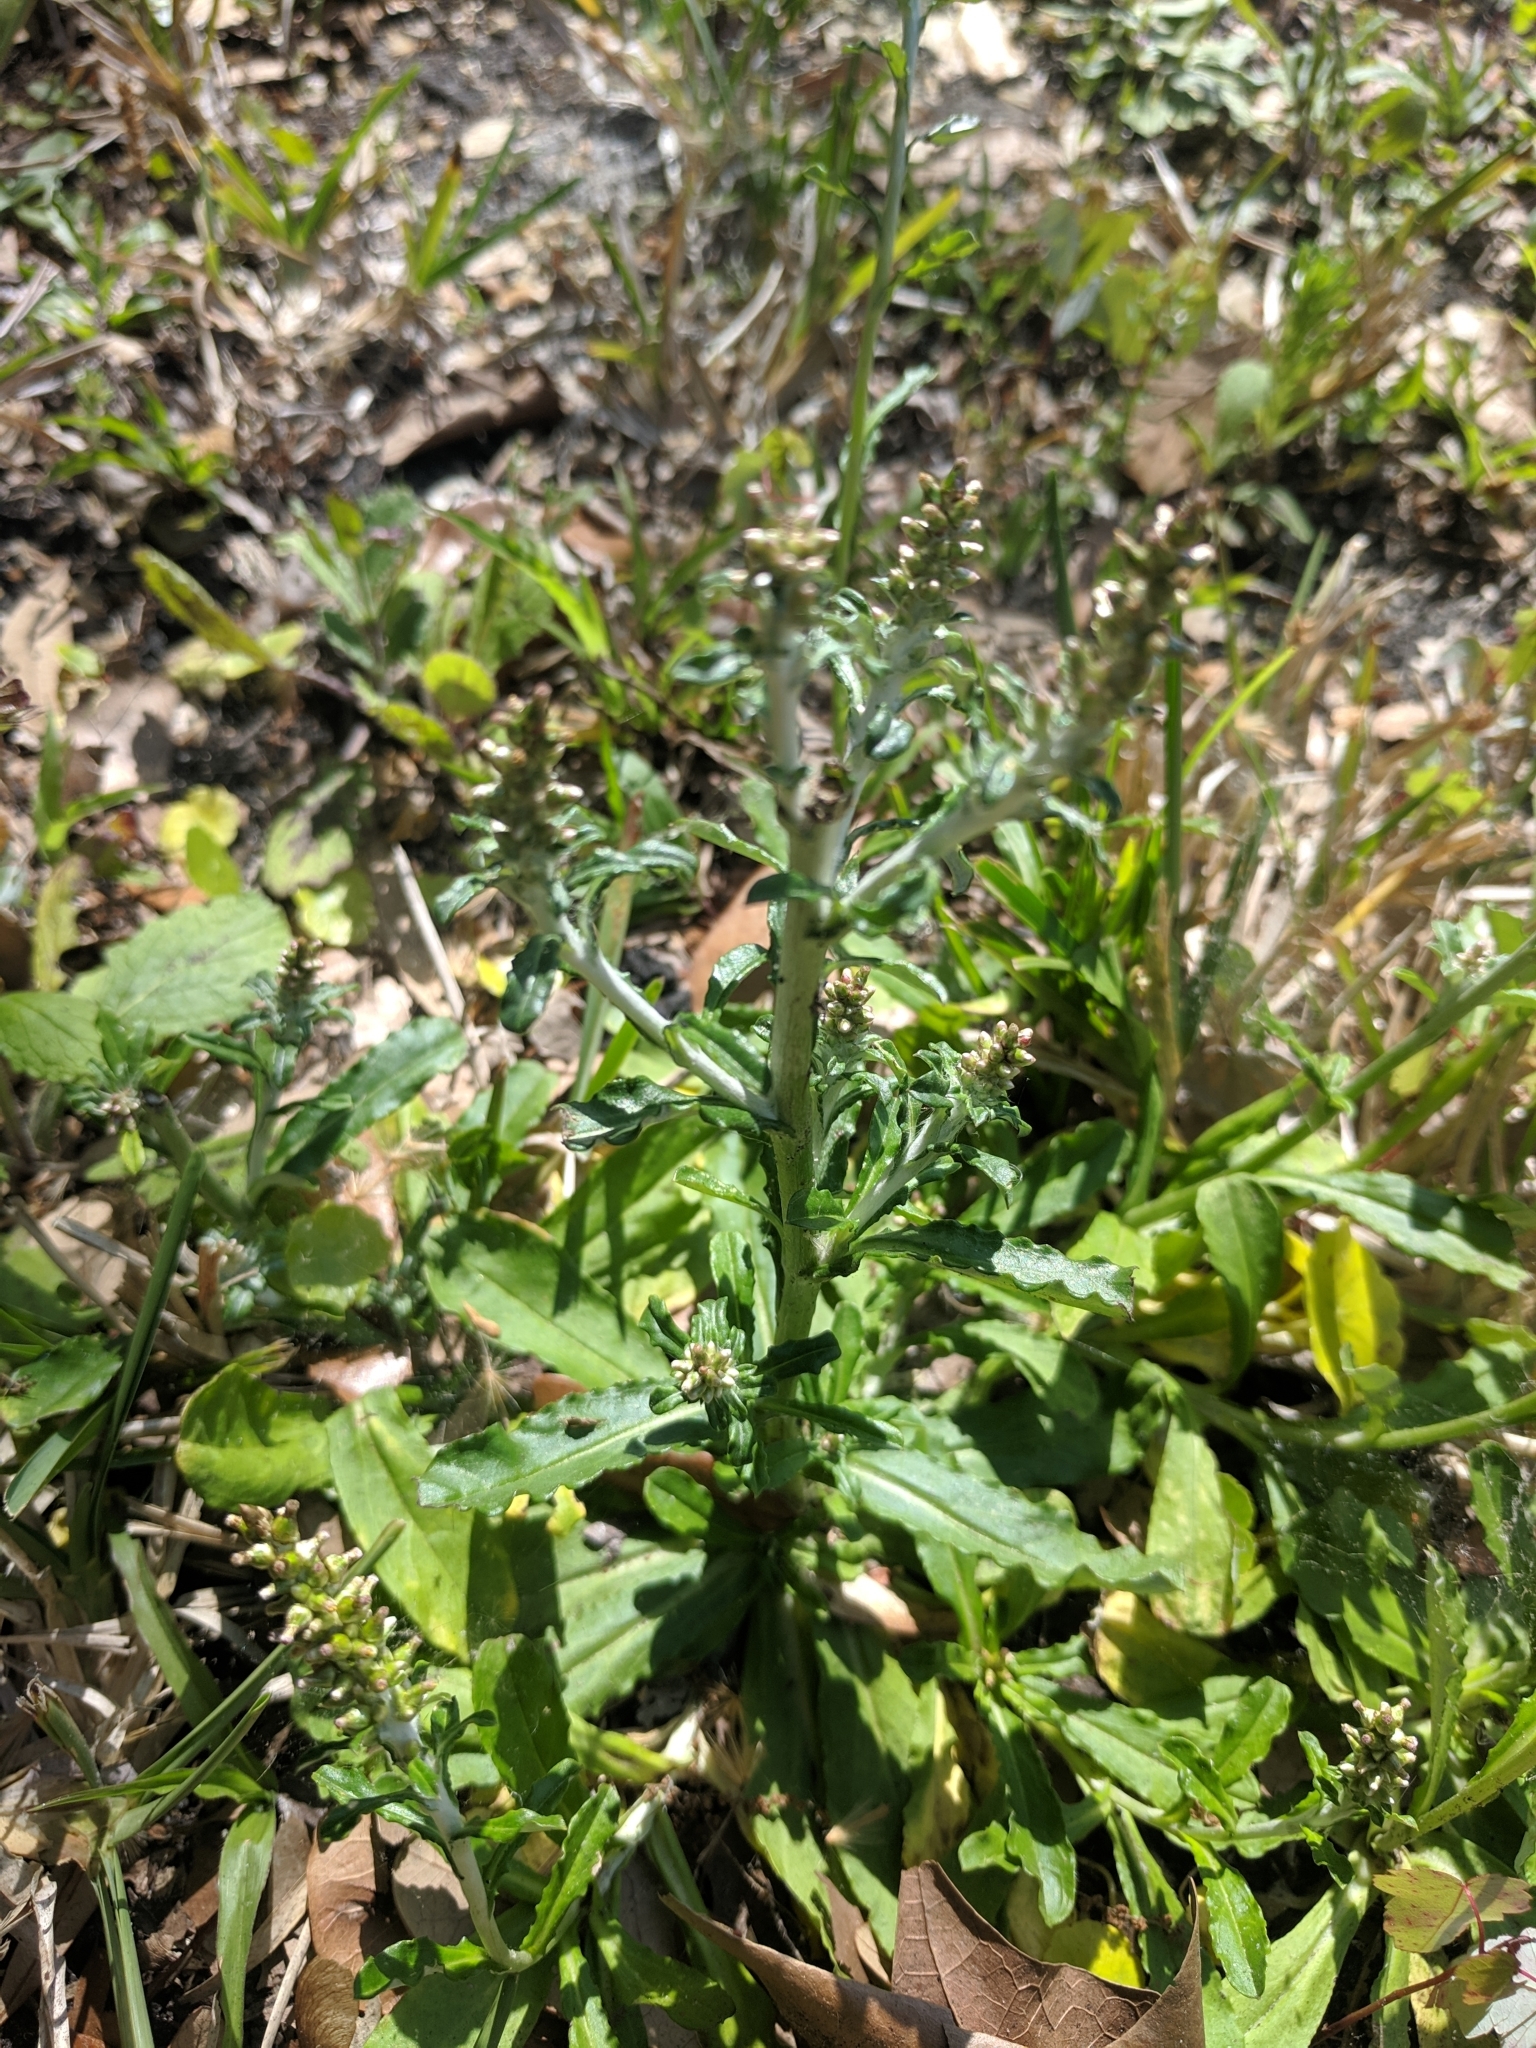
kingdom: Plantae
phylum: Tracheophyta
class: Magnoliopsida
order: Asterales
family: Asteraceae
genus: Gamochaeta
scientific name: Gamochaeta pensylvanica
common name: Pennsylvania everlasting
